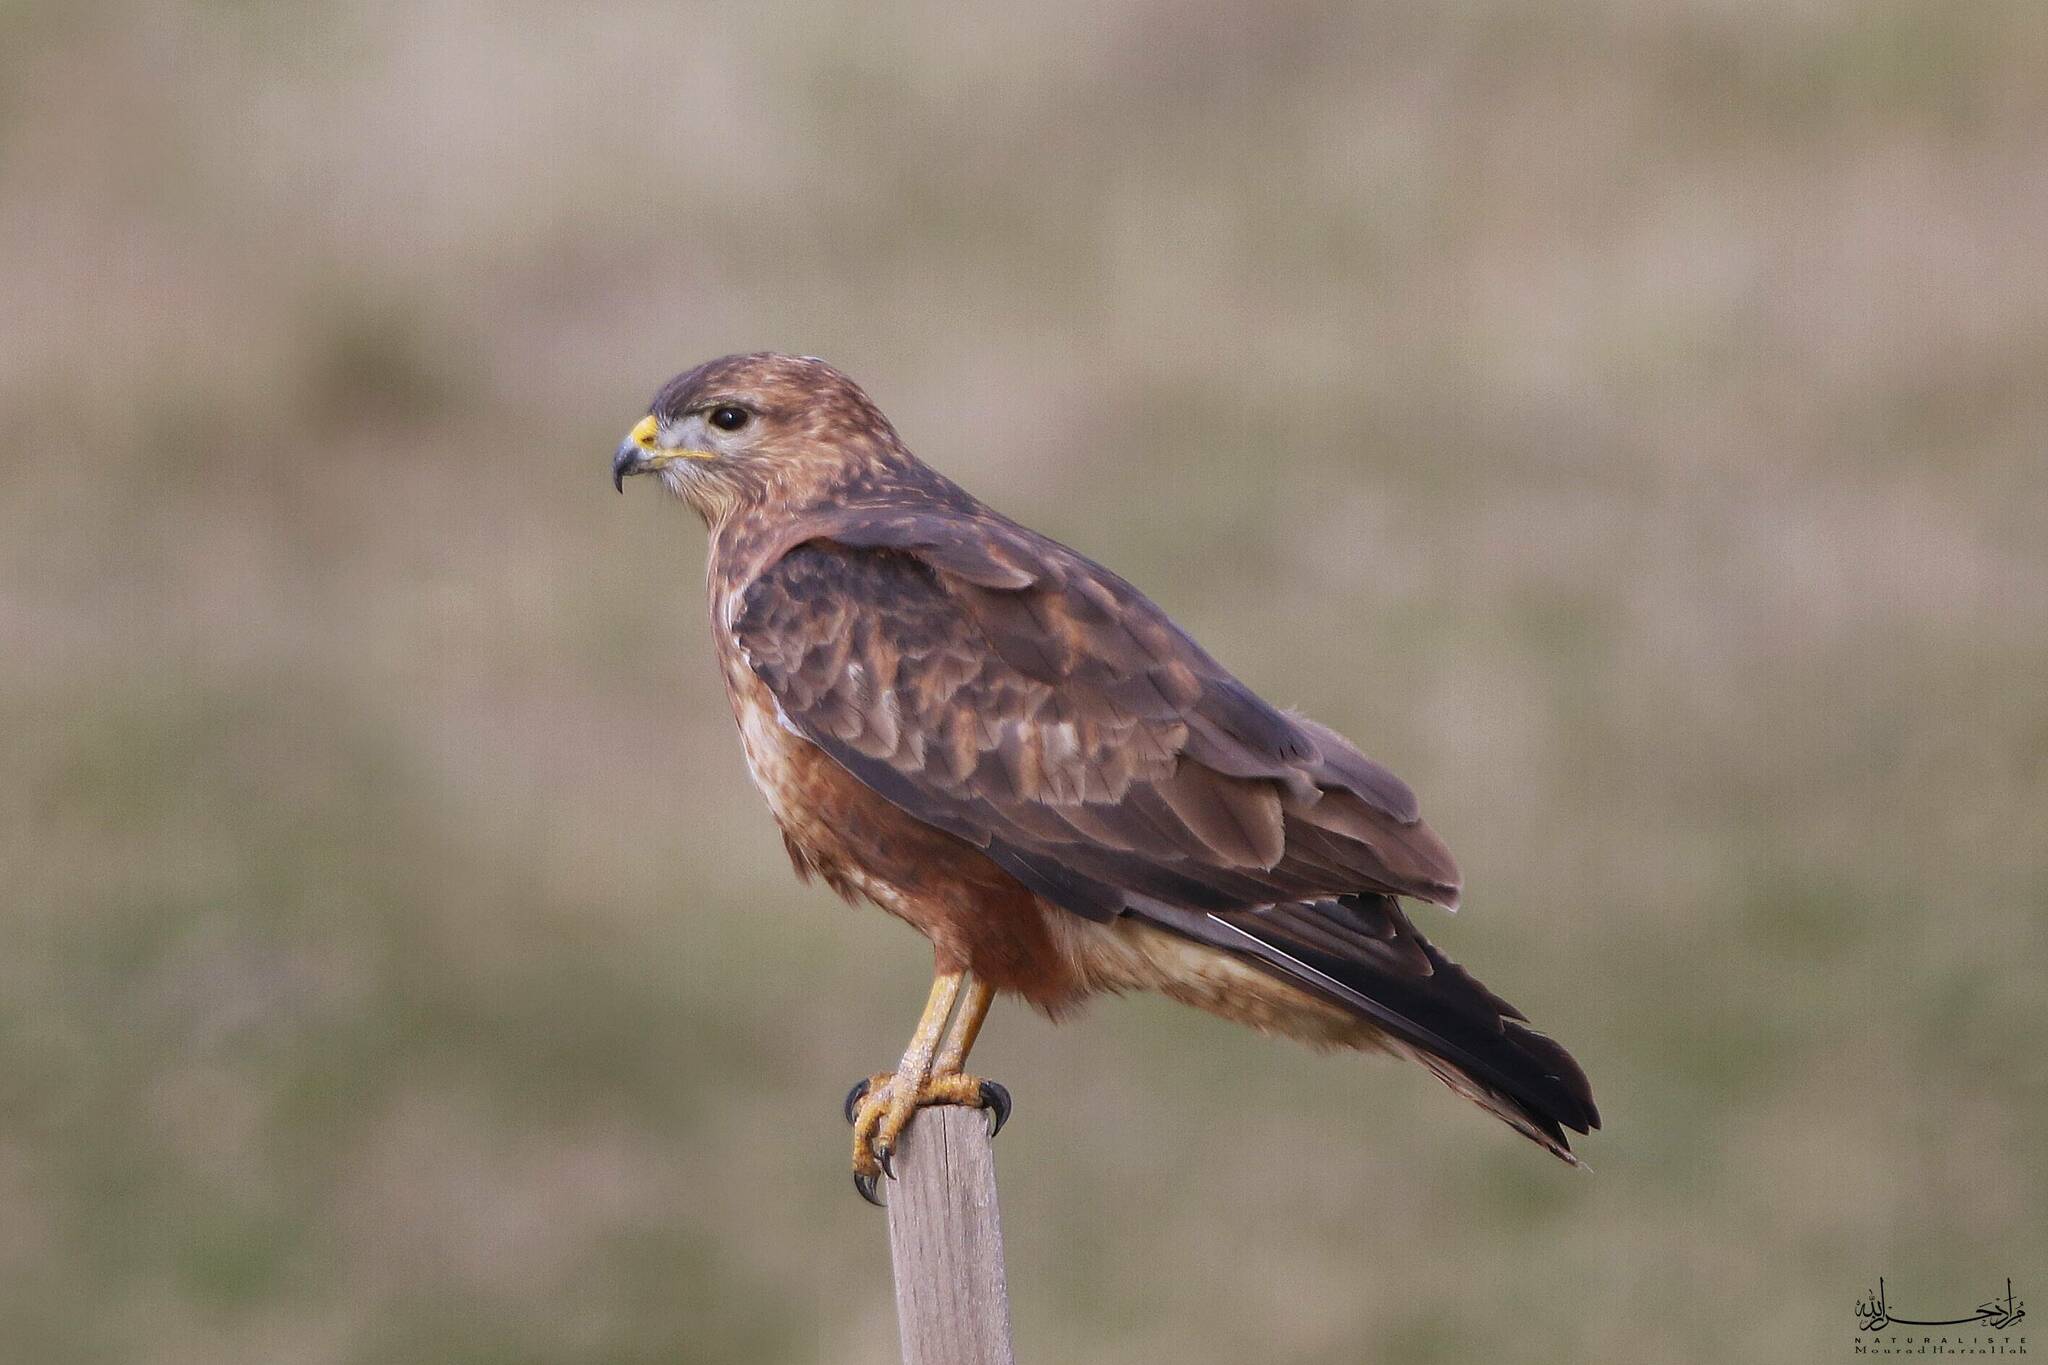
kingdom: Animalia
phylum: Chordata
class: Aves
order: Accipitriformes
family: Accipitridae
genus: Buteo
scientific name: Buteo buteo
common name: Common buzzard
